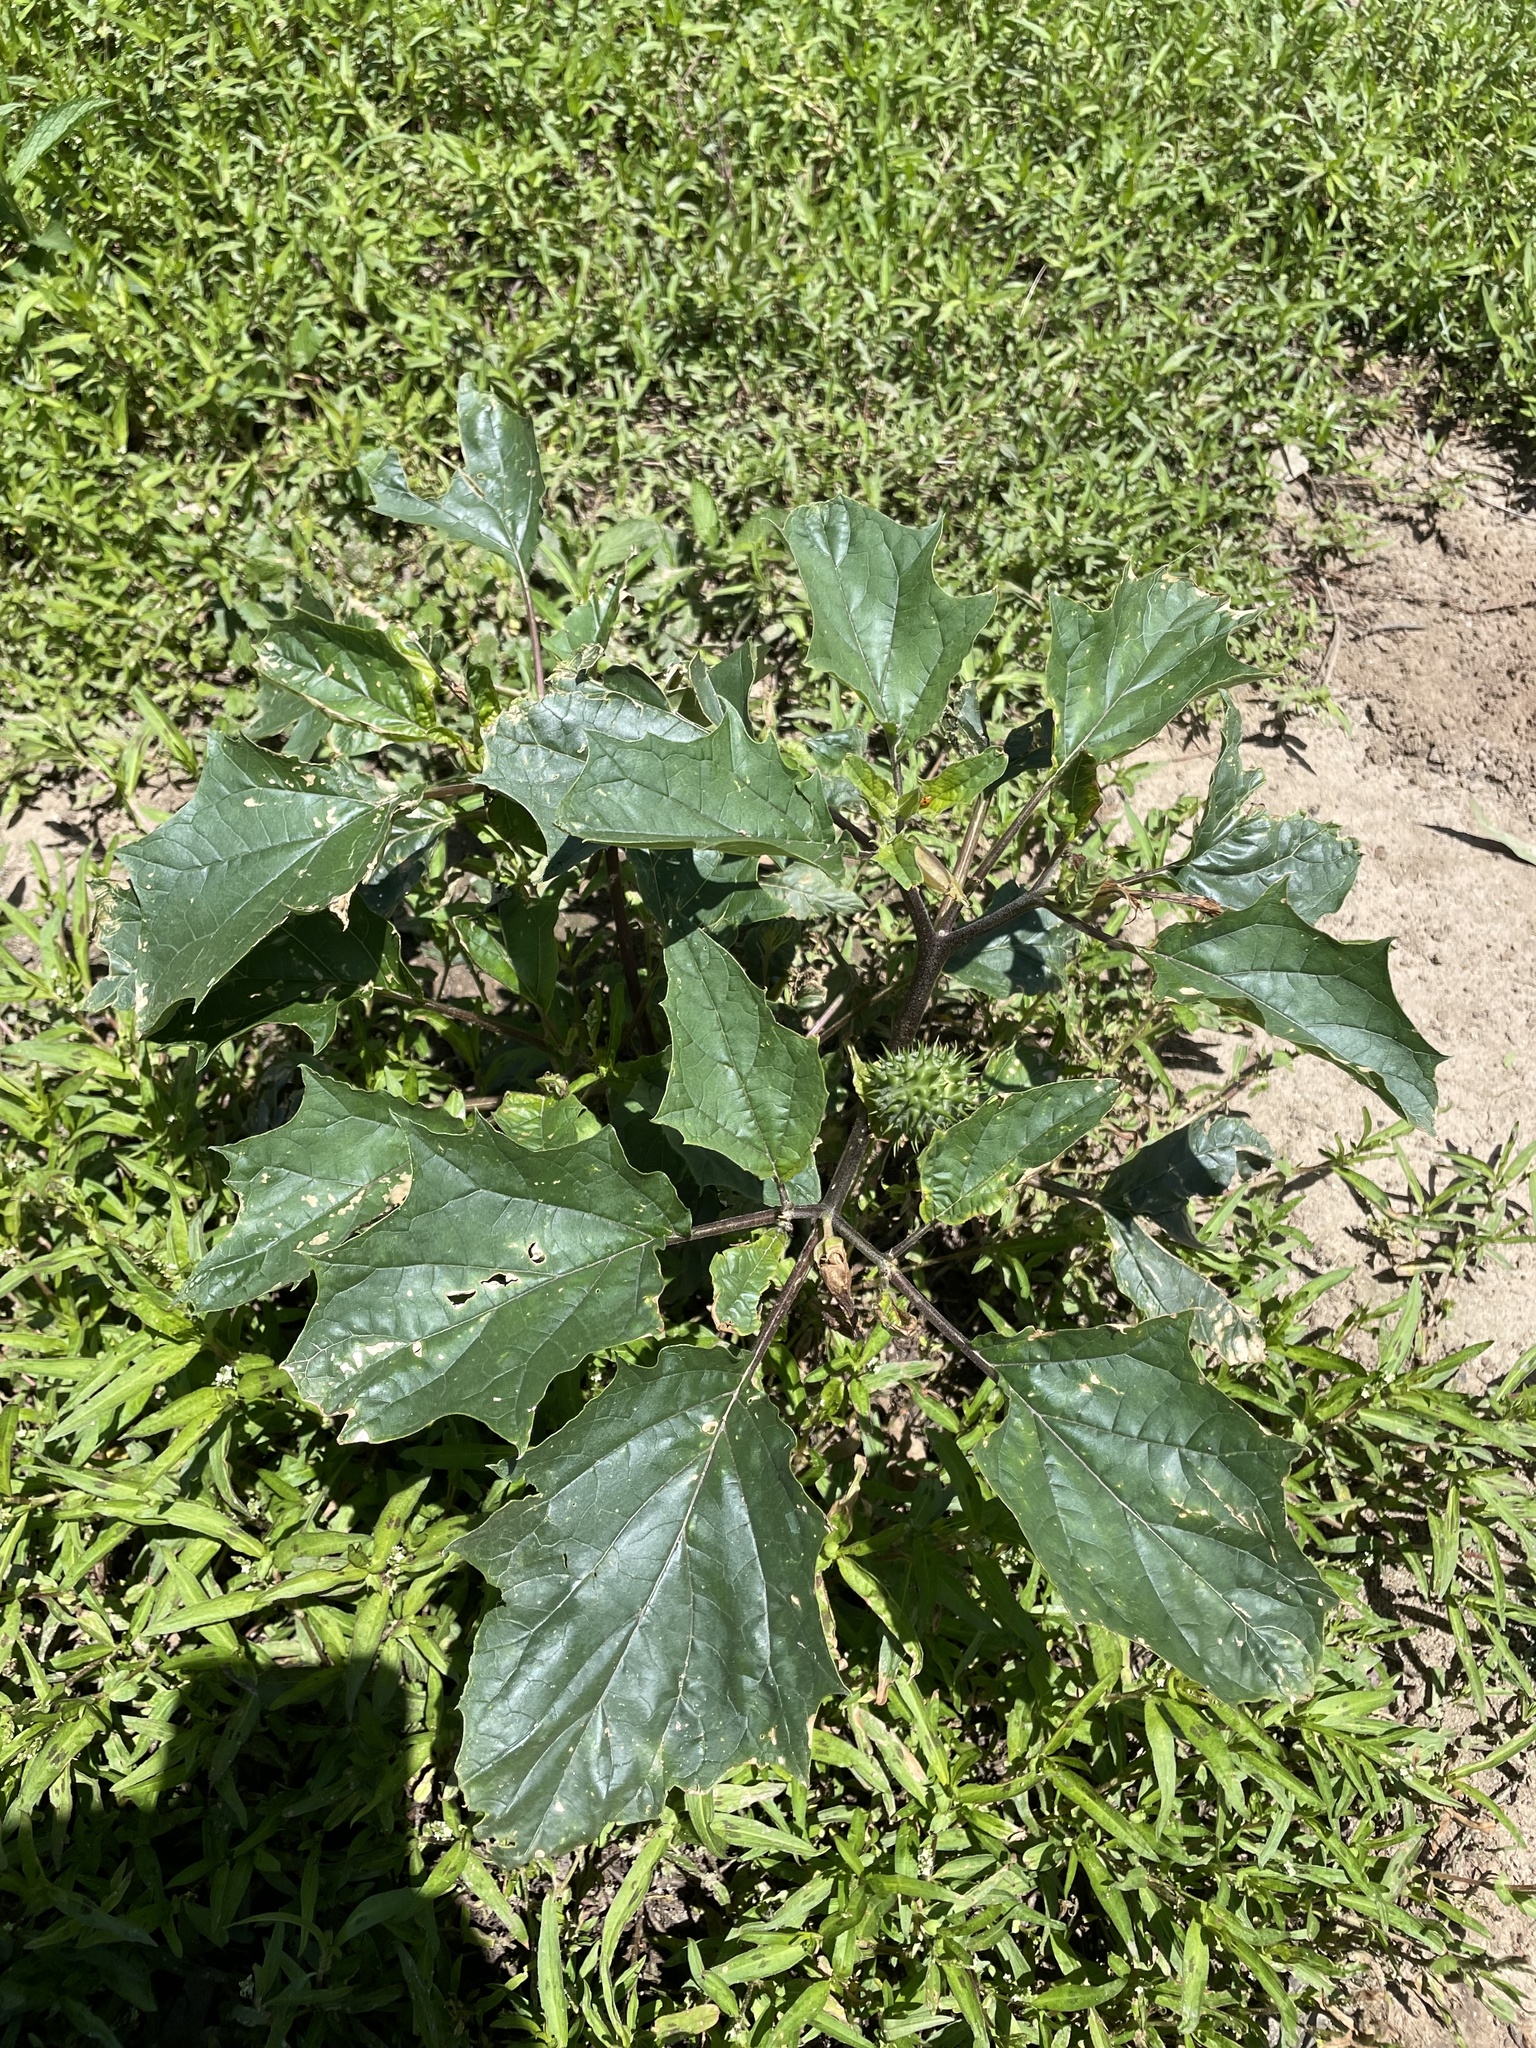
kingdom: Plantae
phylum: Tracheophyta
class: Magnoliopsida
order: Solanales
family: Solanaceae
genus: Datura
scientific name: Datura stramonium
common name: Thorn-apple
